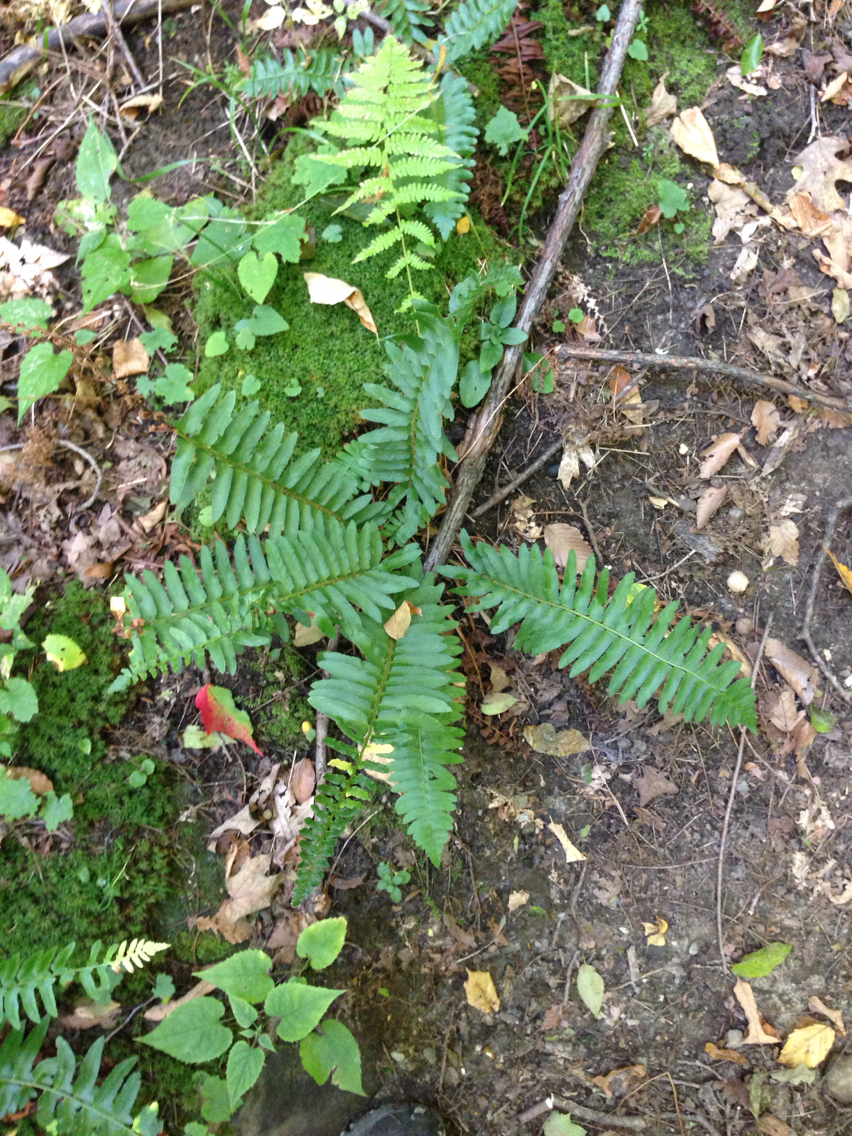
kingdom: Plantae
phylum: Tracheophyta
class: Polypodiopsida
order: Polypodiales
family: Dryopteridaceae
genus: Polystichum
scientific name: Polystichum acrostichoides
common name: Christmas fern
